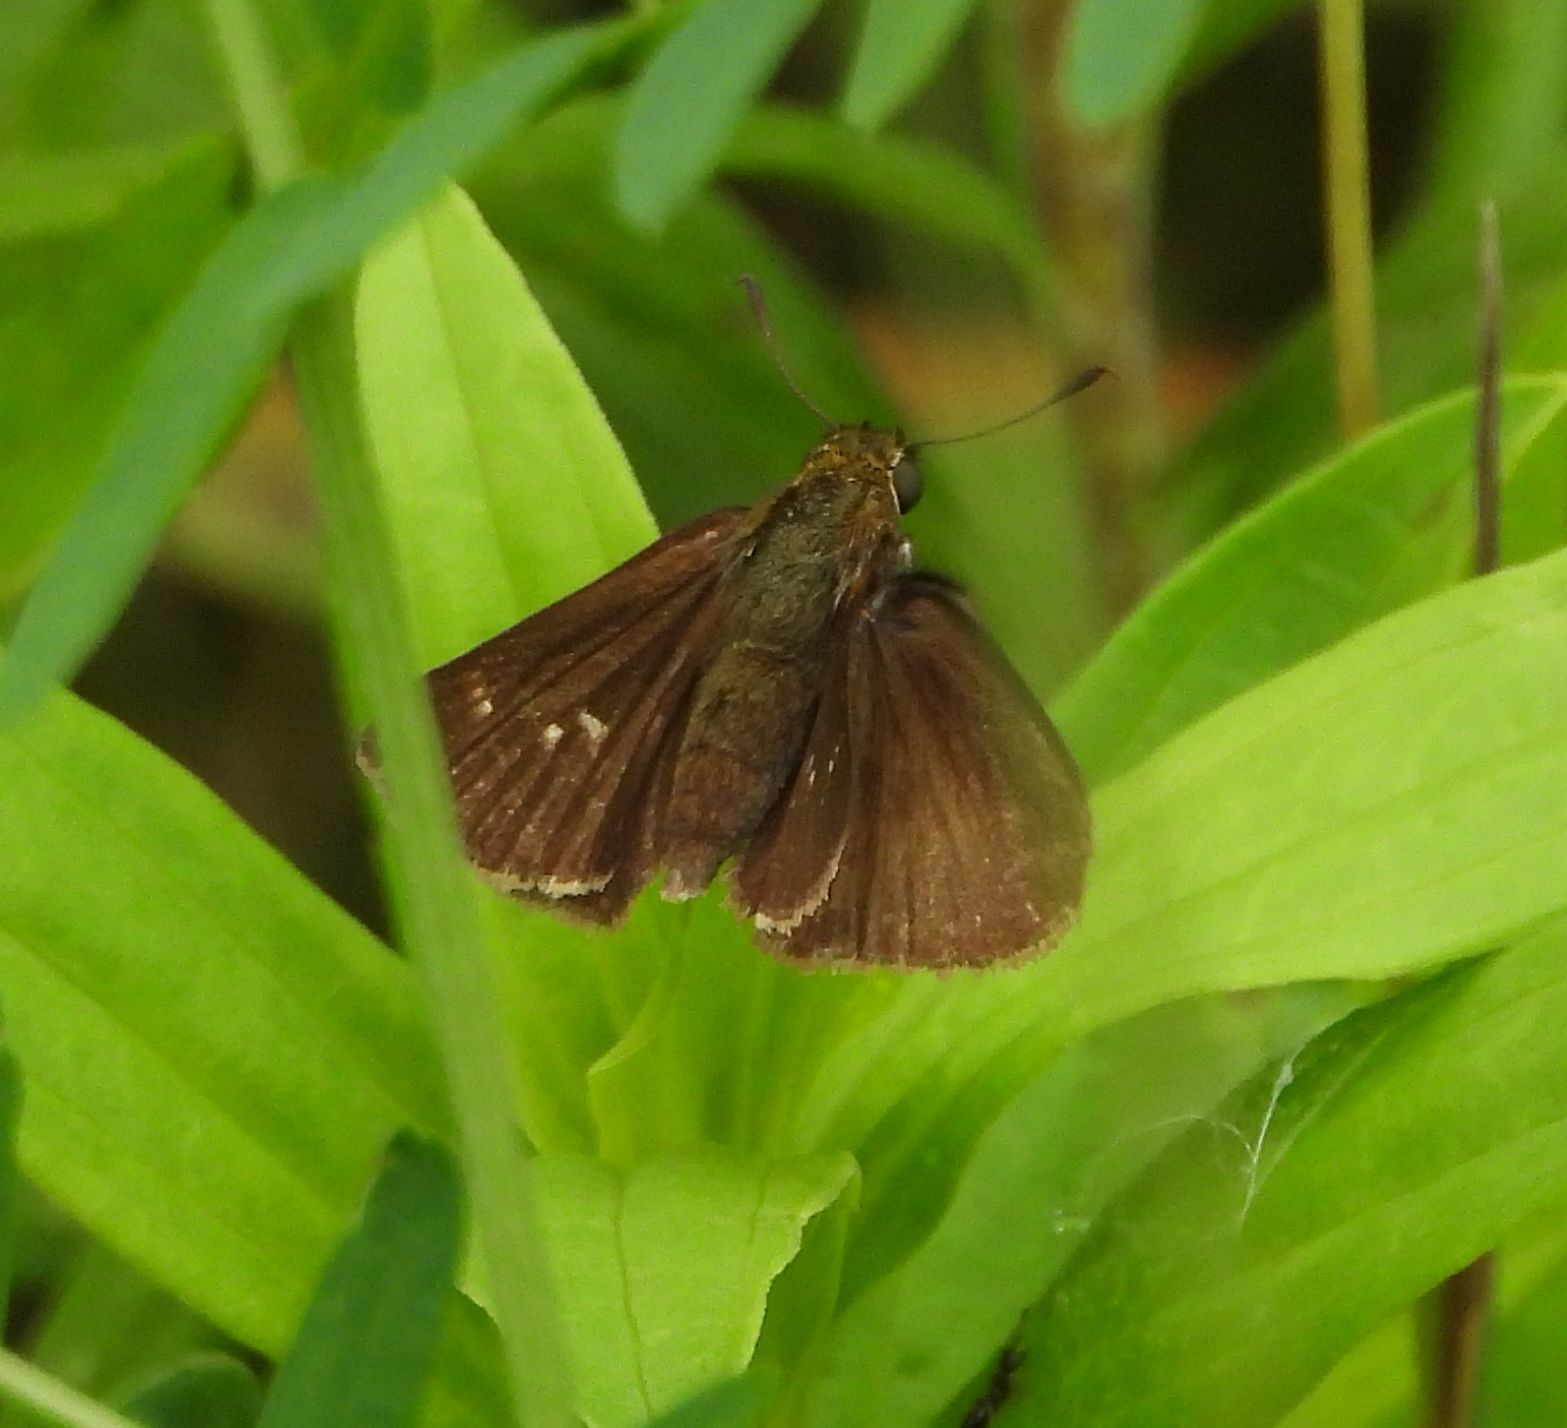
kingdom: Animalia
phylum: Arthropoda
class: Insecta
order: Lepidoptera
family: Hesperiidae
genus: Euphyes
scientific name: Euphyes vestris
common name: Dun skipper
